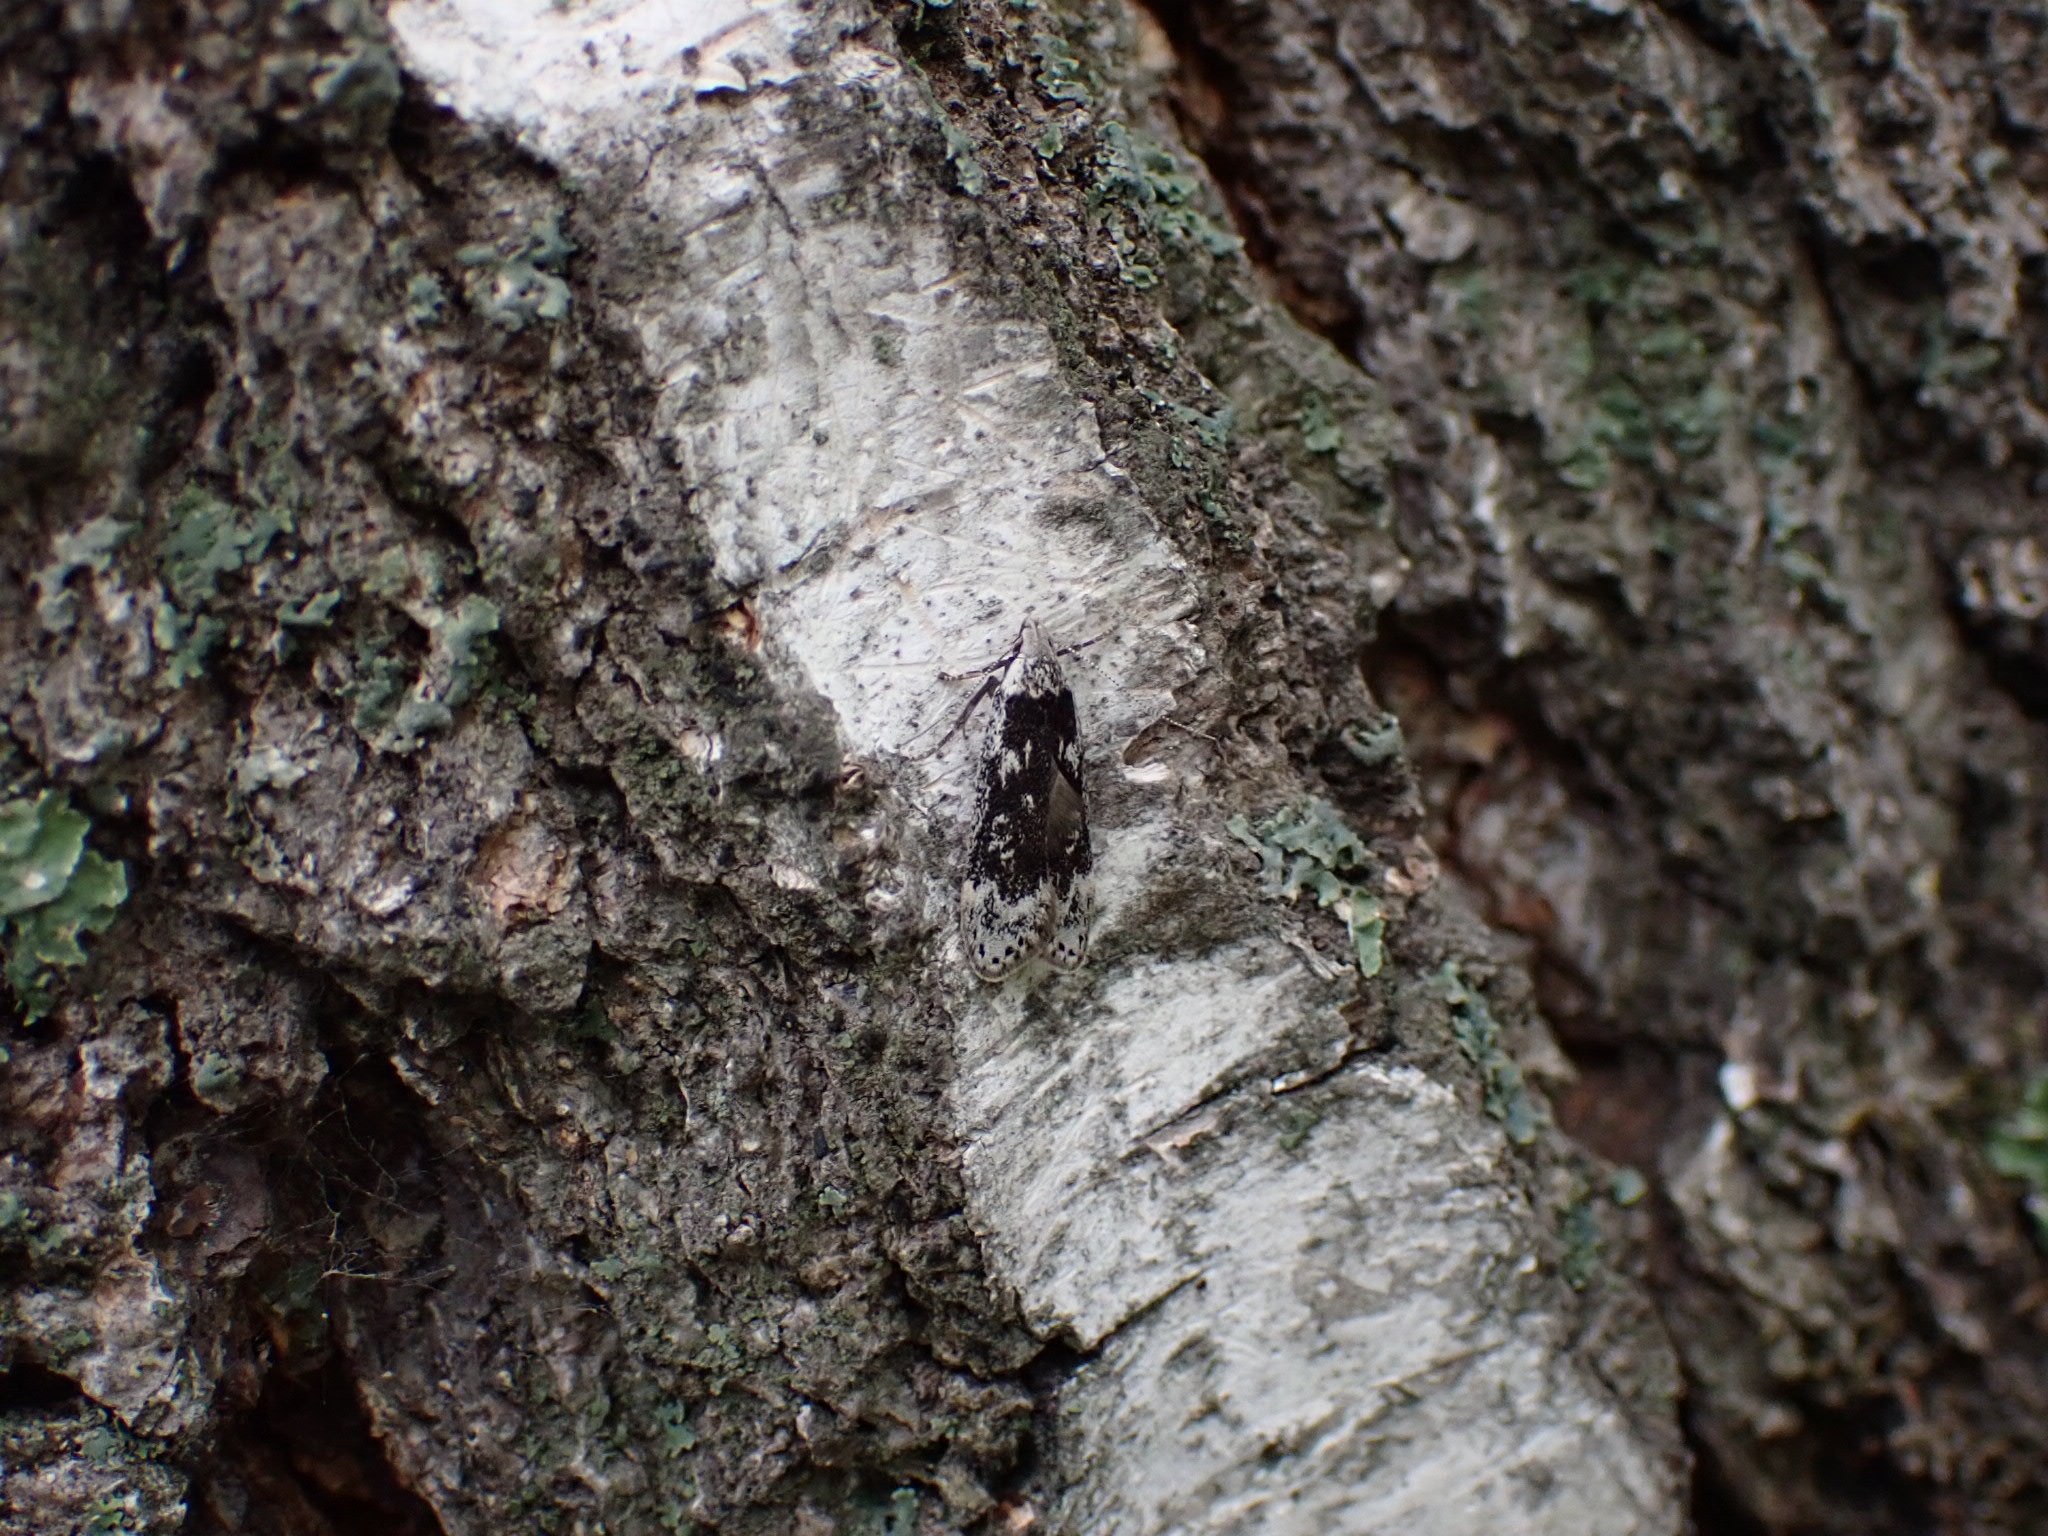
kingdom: Animalia
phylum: Arthropoda
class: Insecta
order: Lepidoptera
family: Gelechiidae
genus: Anacampsis
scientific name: Anacampsis blattariella
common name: Birch sober
